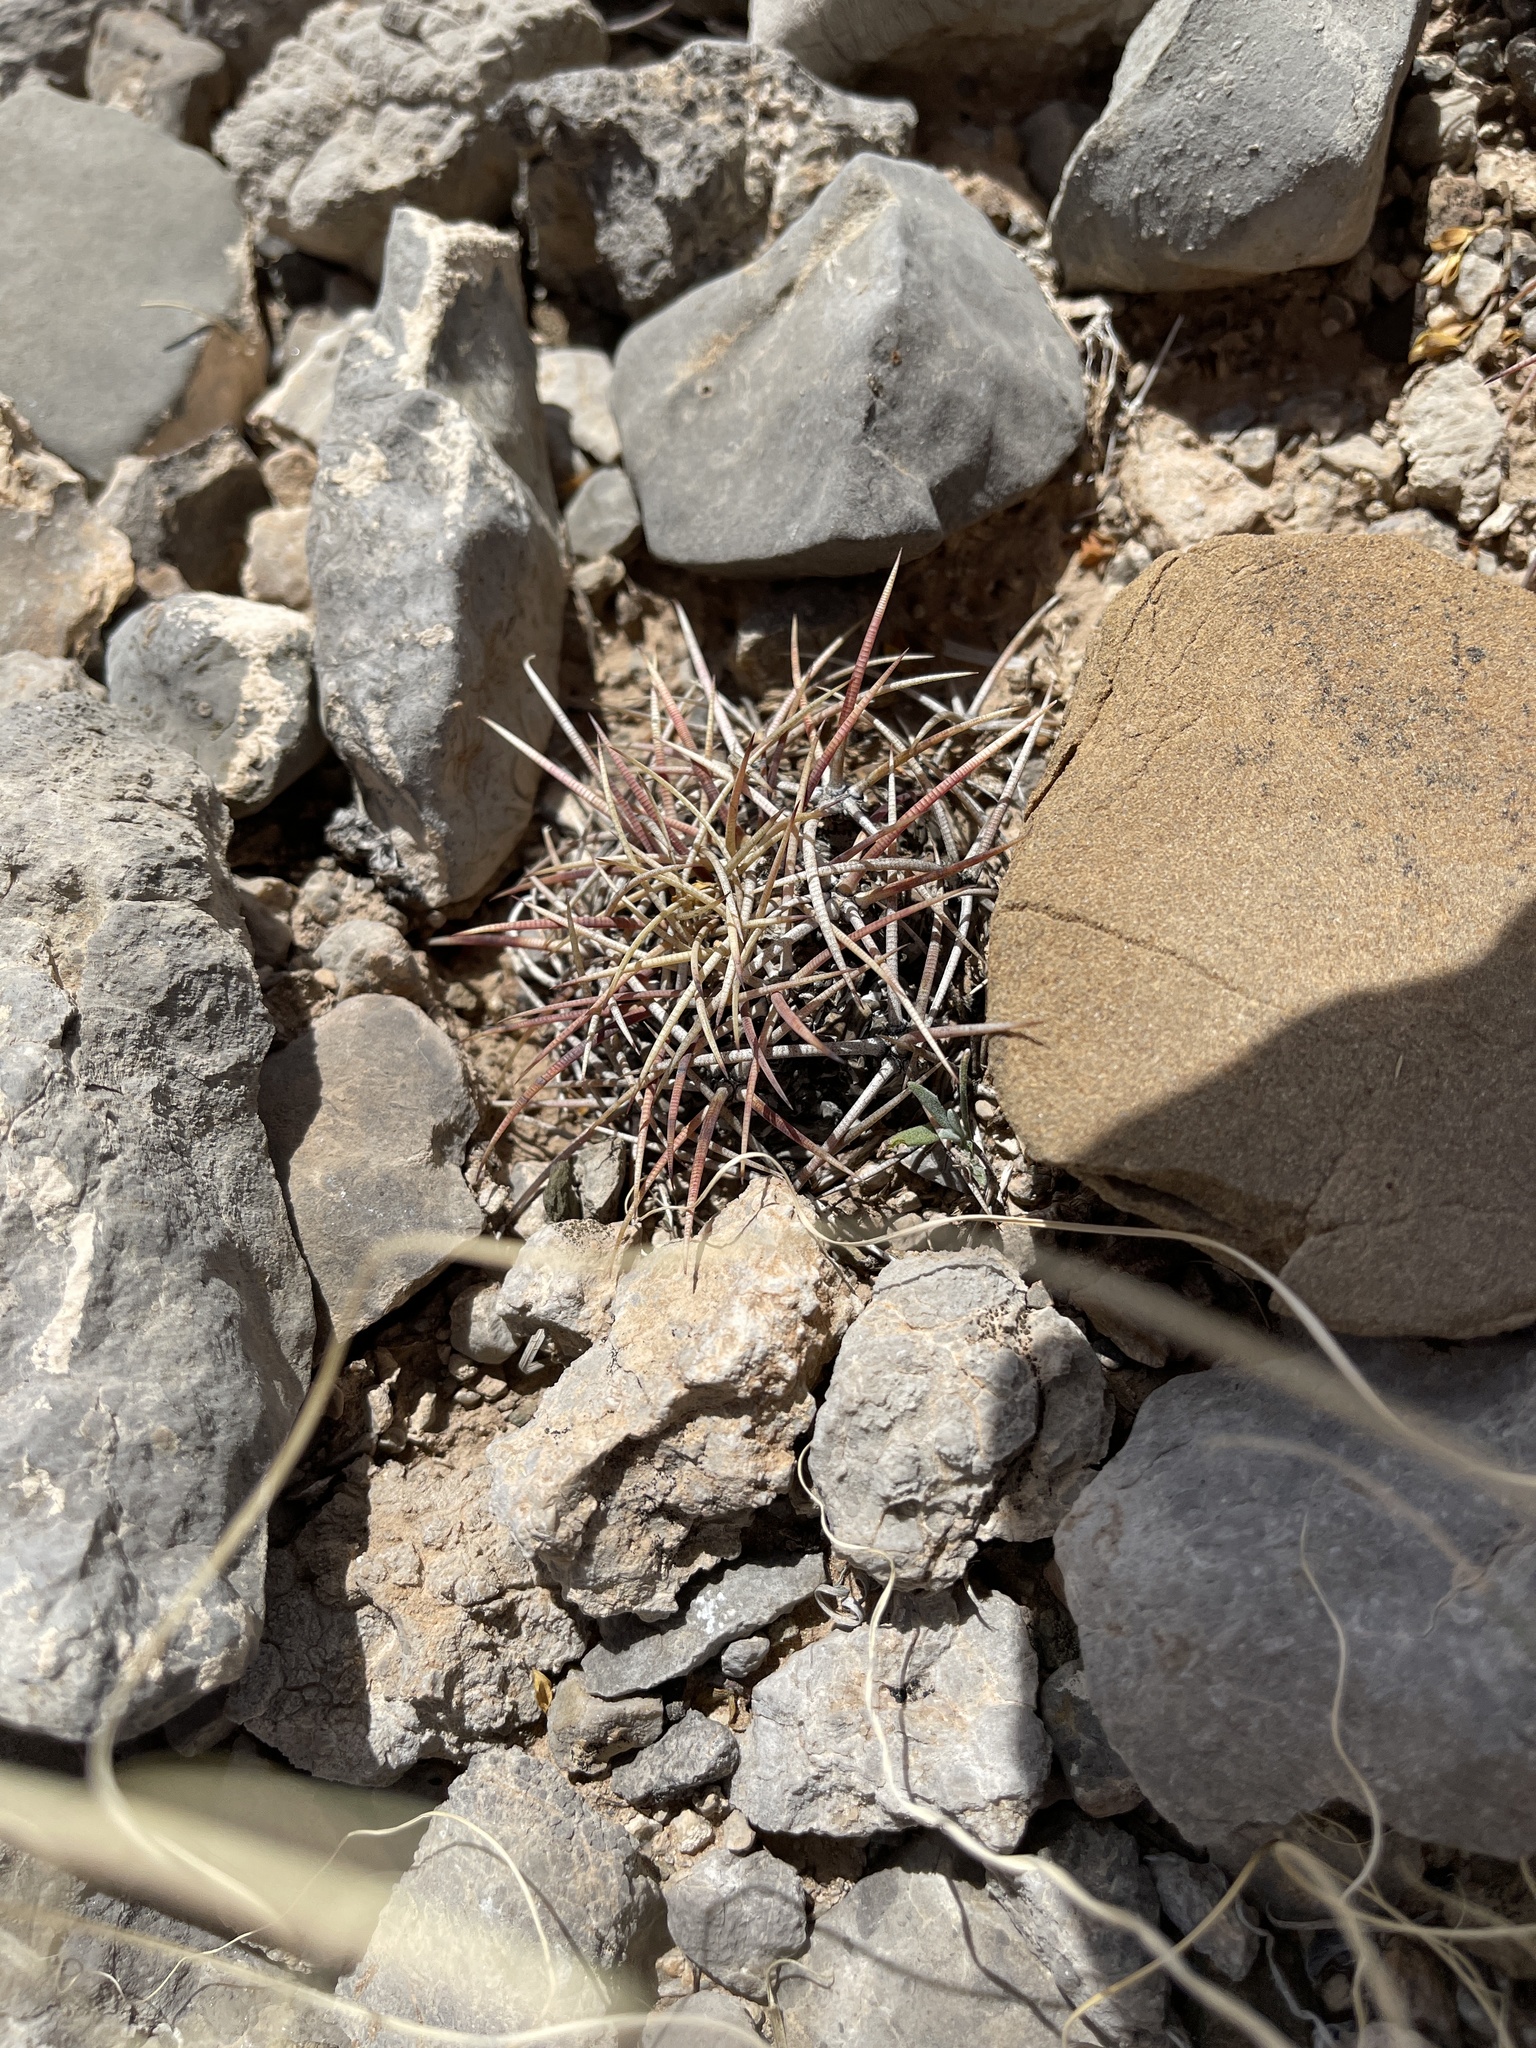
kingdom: Plantae
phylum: Tracheophyta
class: Magnoliopsida
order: Caryophyllales
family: Cactaceae
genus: Echinocactus
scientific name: Echinocactus horizonthalonius
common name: Devilshead
